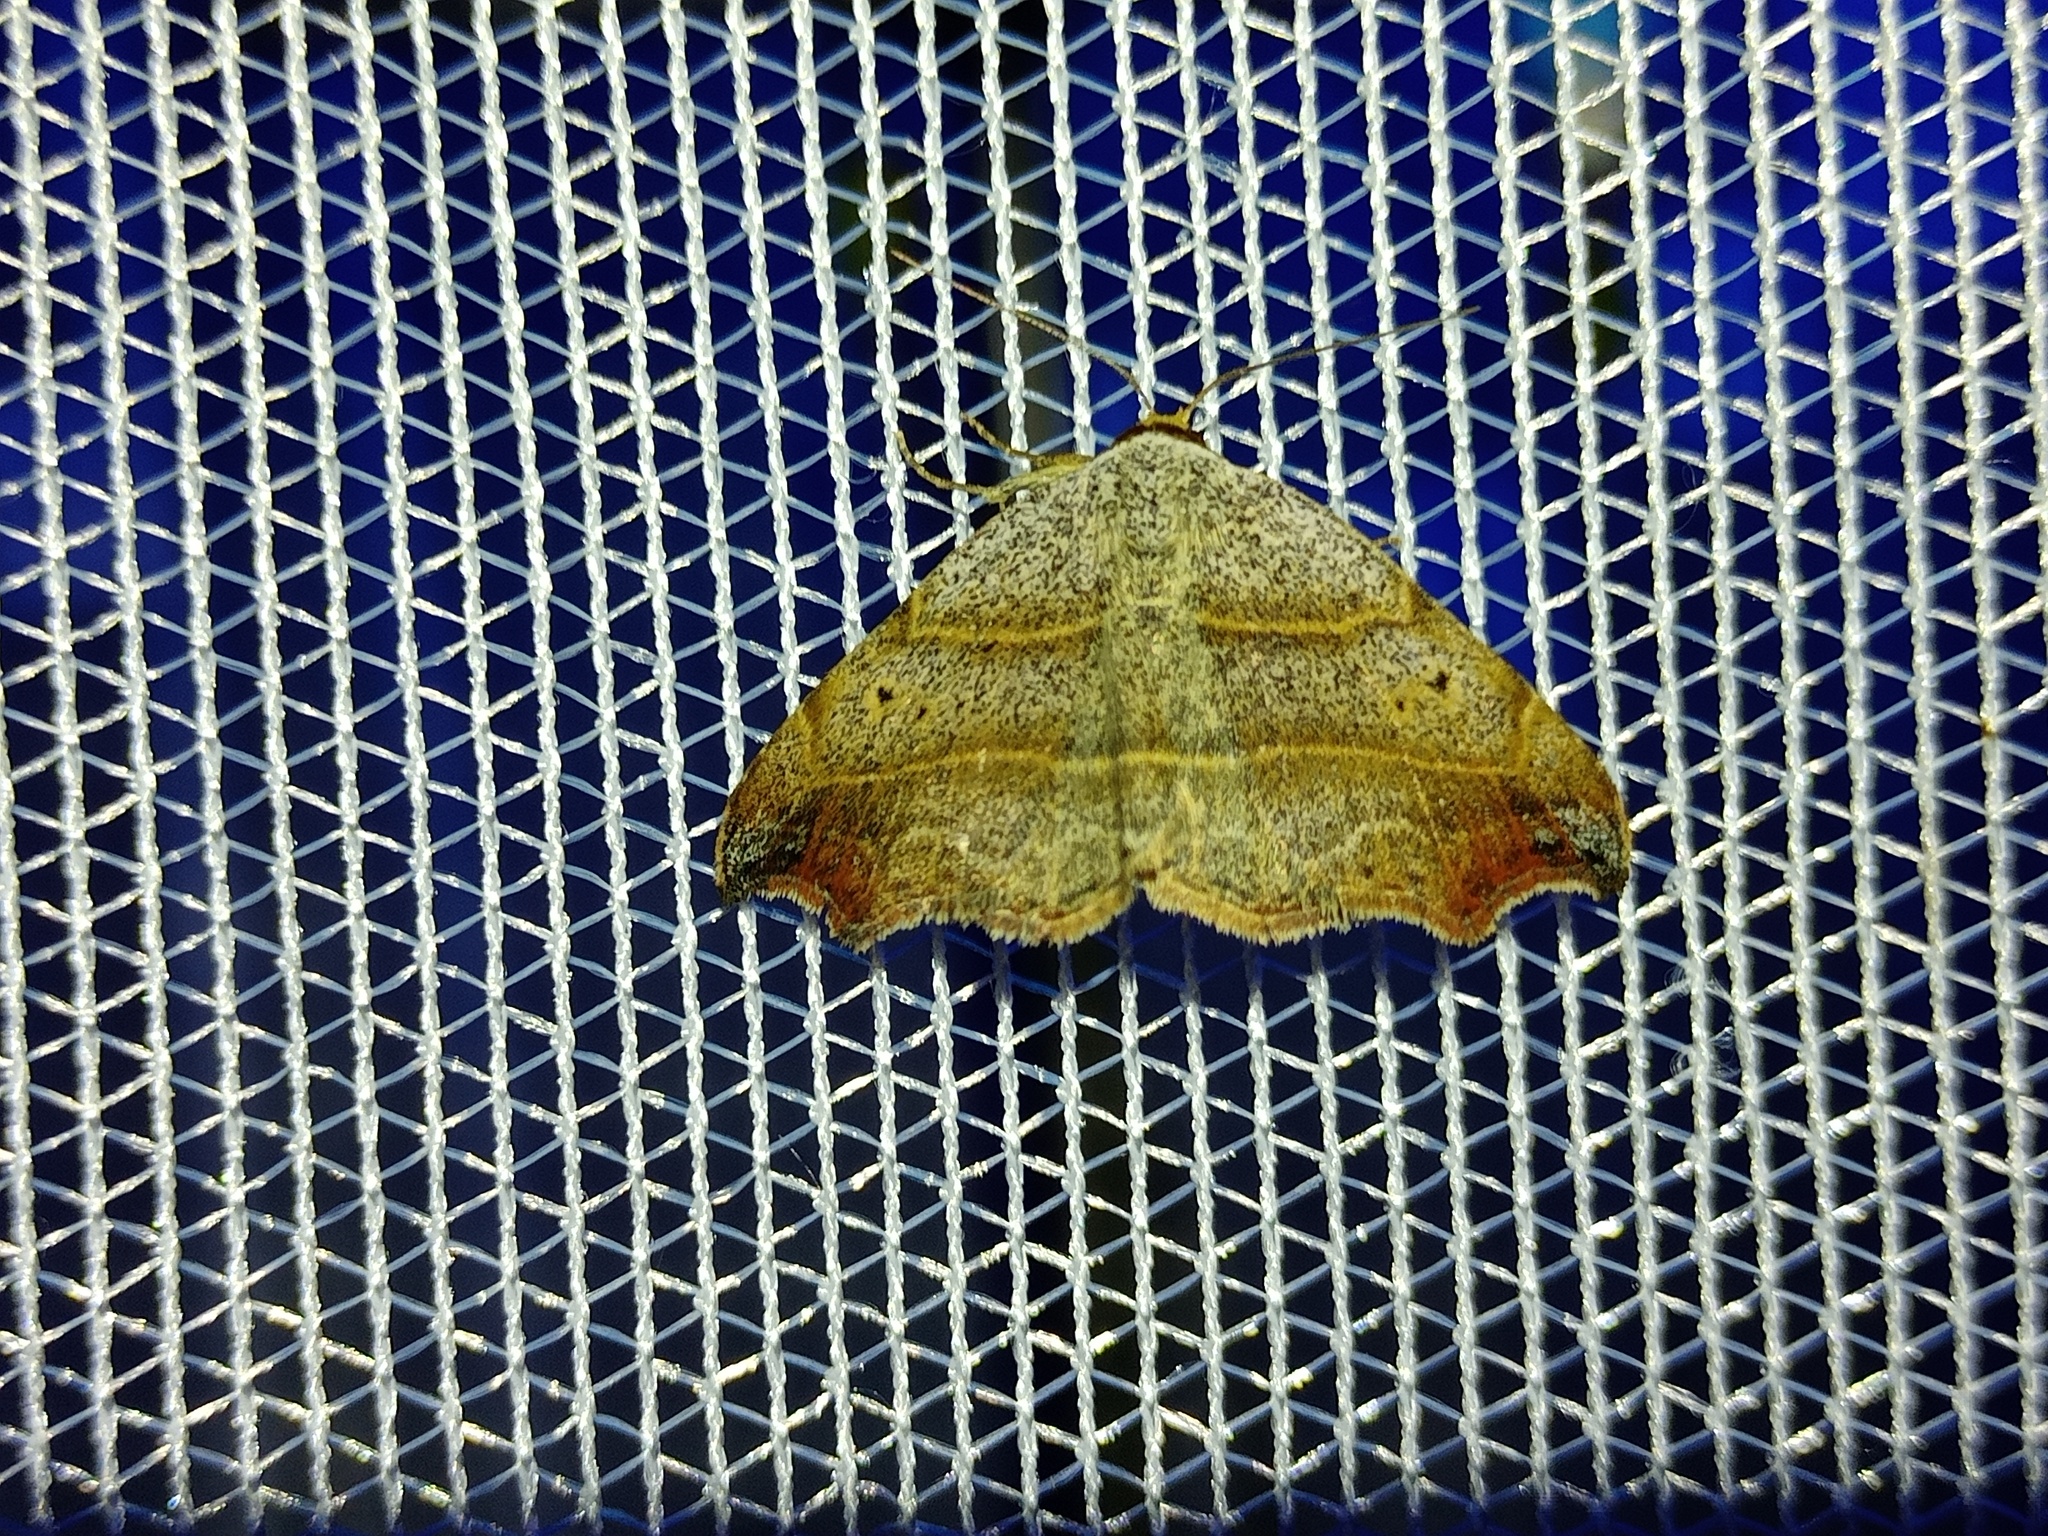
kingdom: Animalia
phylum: Arthropoda
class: Insecta
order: Lepidoptera
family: Erebidae
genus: Laspeyria
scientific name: Laspeyria flexula
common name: Beautiful hook-tip
